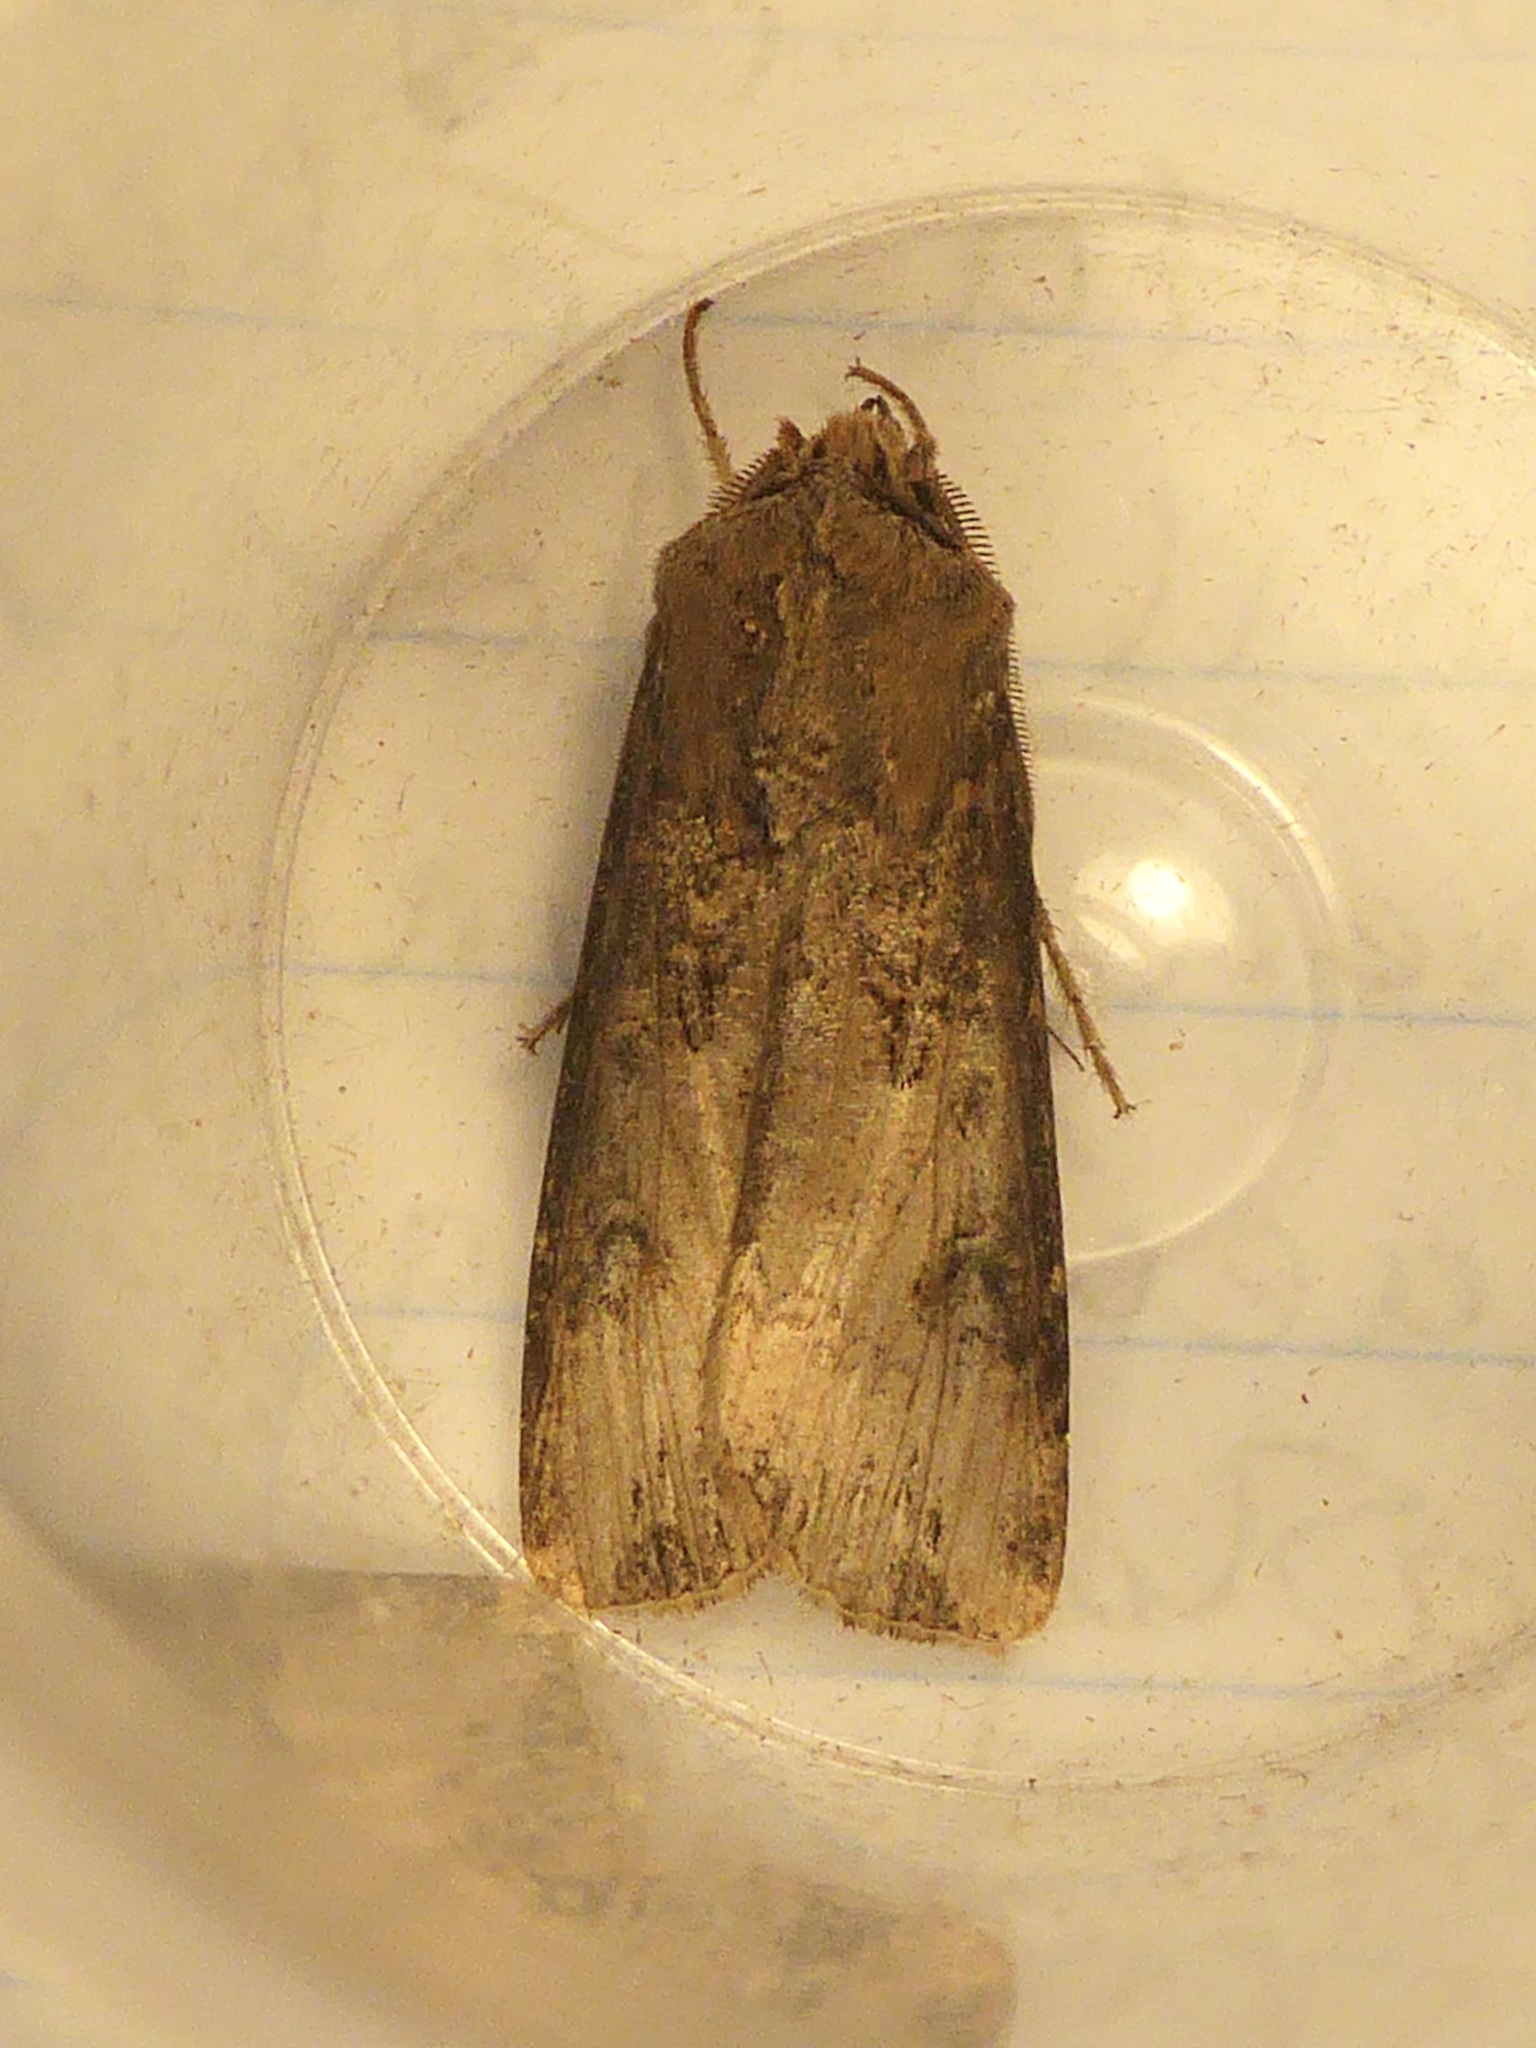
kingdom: Animalia
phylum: Arthropoda
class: Insecta
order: Lepidoptera
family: Noctuidae
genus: Agrotis
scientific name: Agrotis ipsilon
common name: Dark sword-grass
